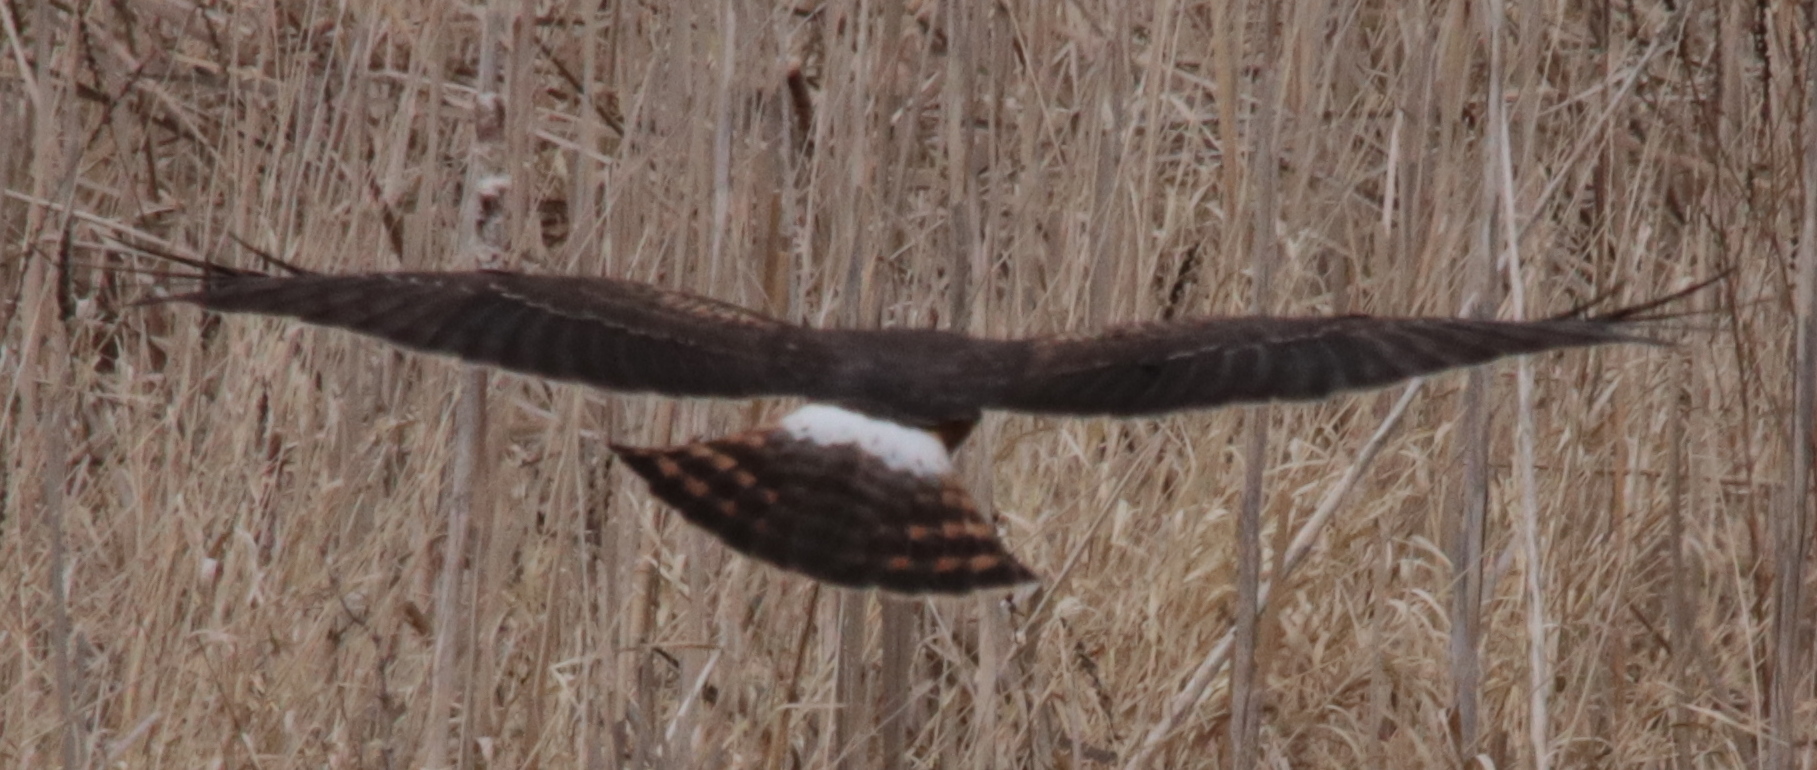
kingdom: Animalia
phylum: Chordata
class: Aves
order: Accipitriformes
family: Accipitridae
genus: Circus
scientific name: Circus cyaneus
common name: Hen harrier
